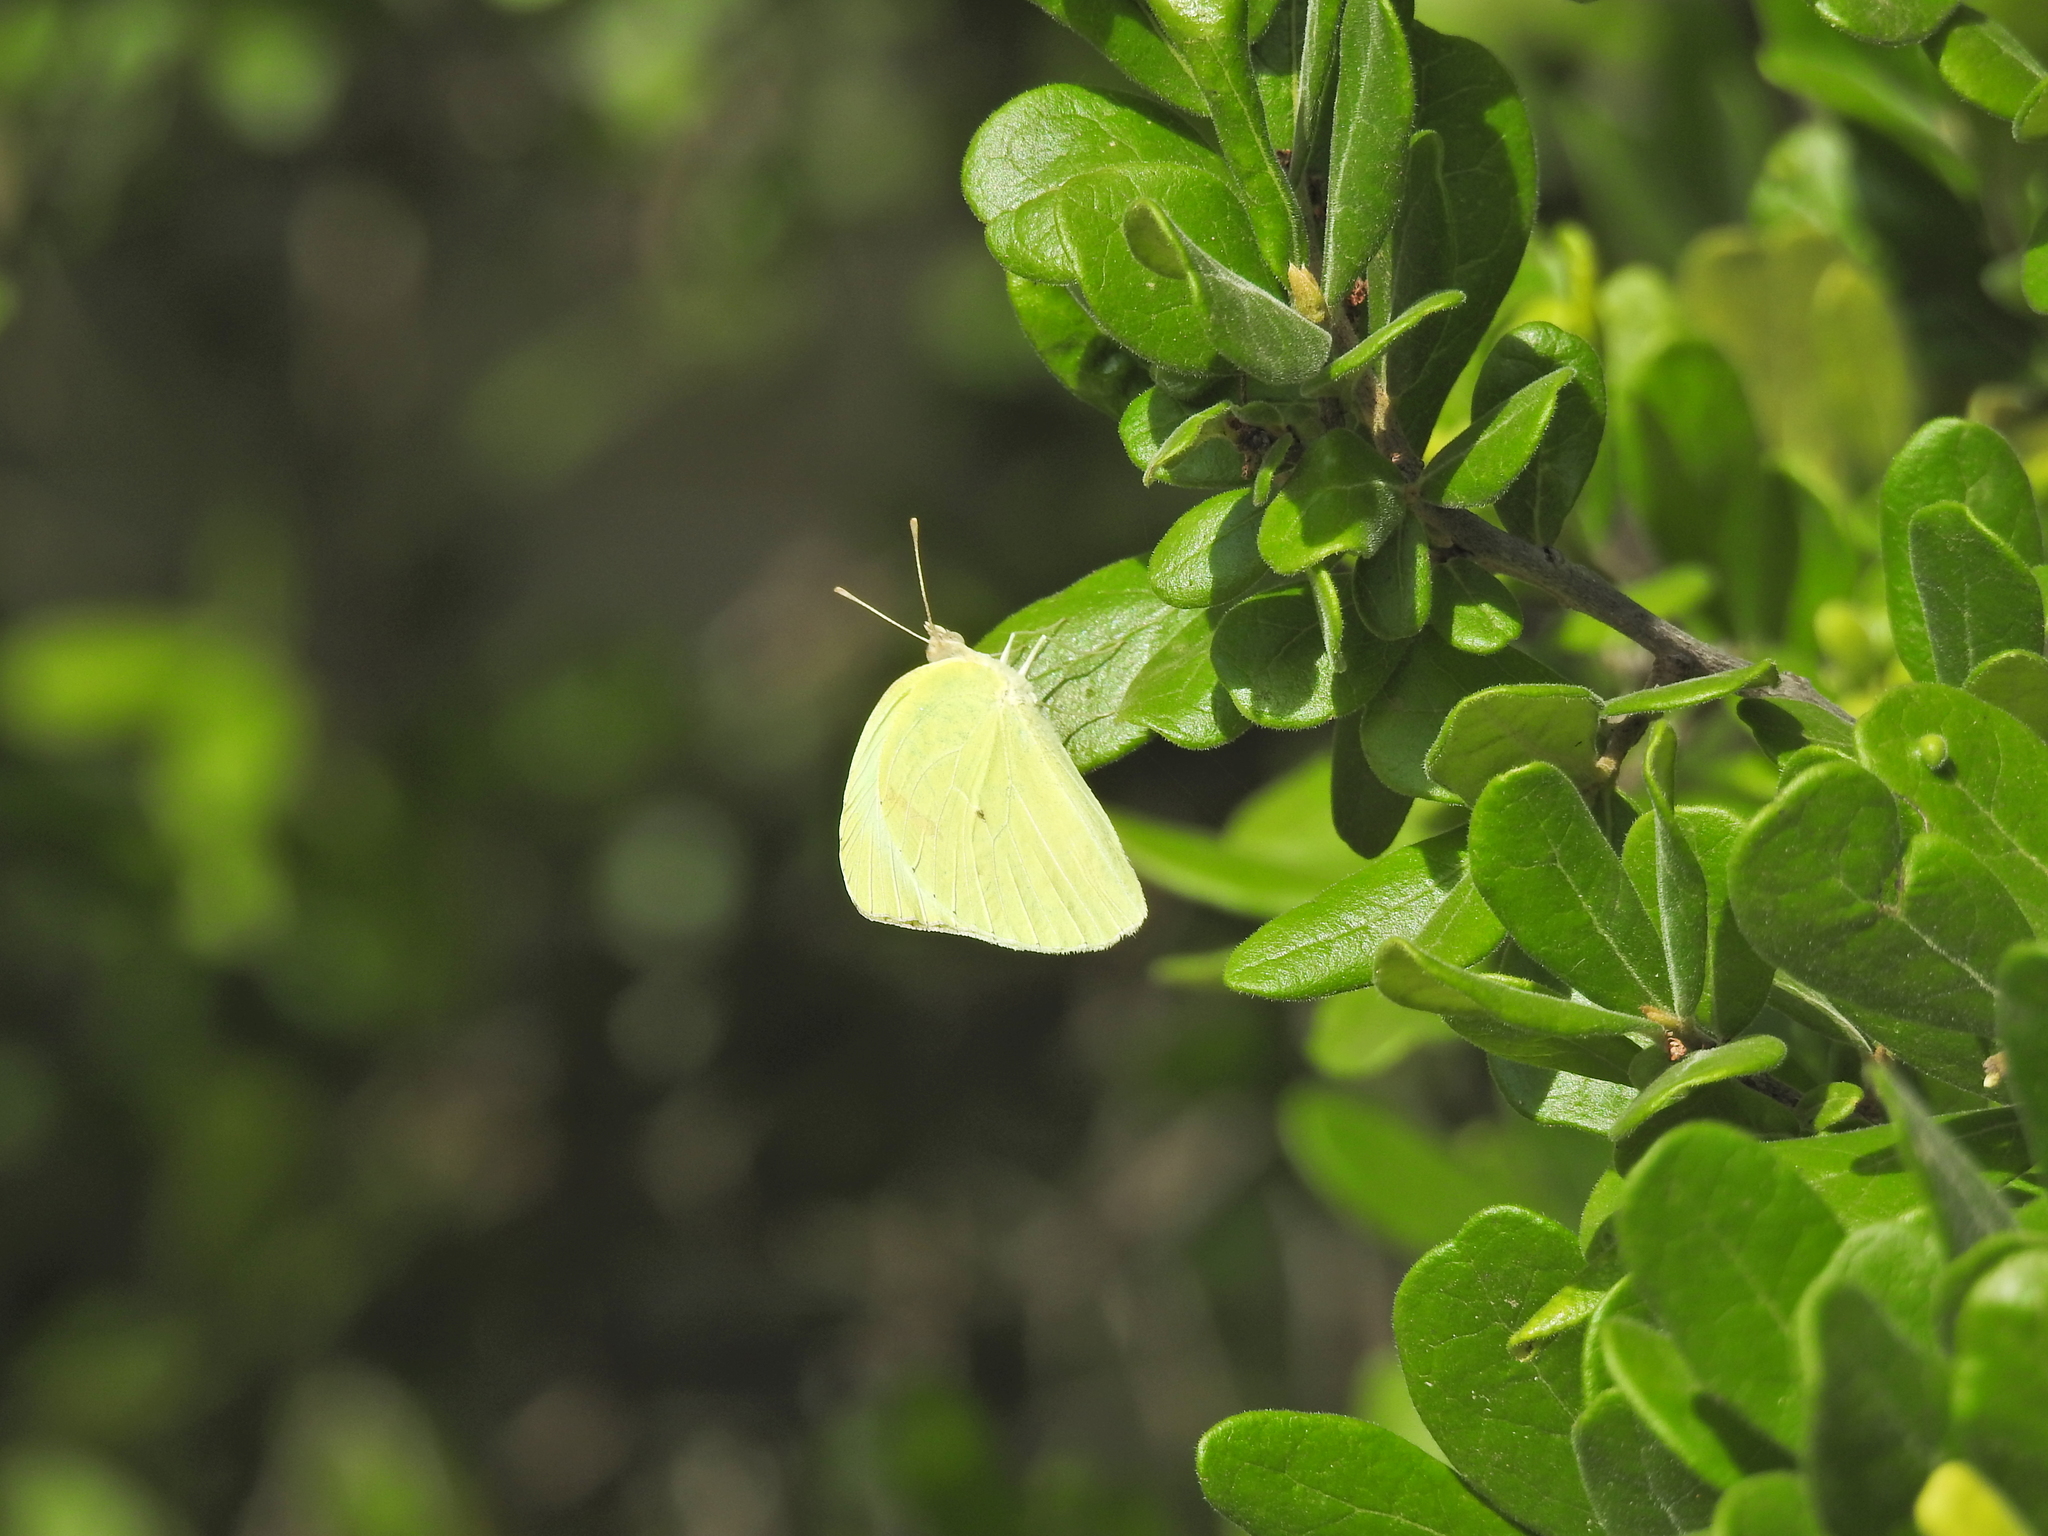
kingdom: Animalia
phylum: Arthropoda
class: Insecta
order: Lepidoptera
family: Pieridae
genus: Kricogonia
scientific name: Kricogonia lyside
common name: Guayacan sulphur,
